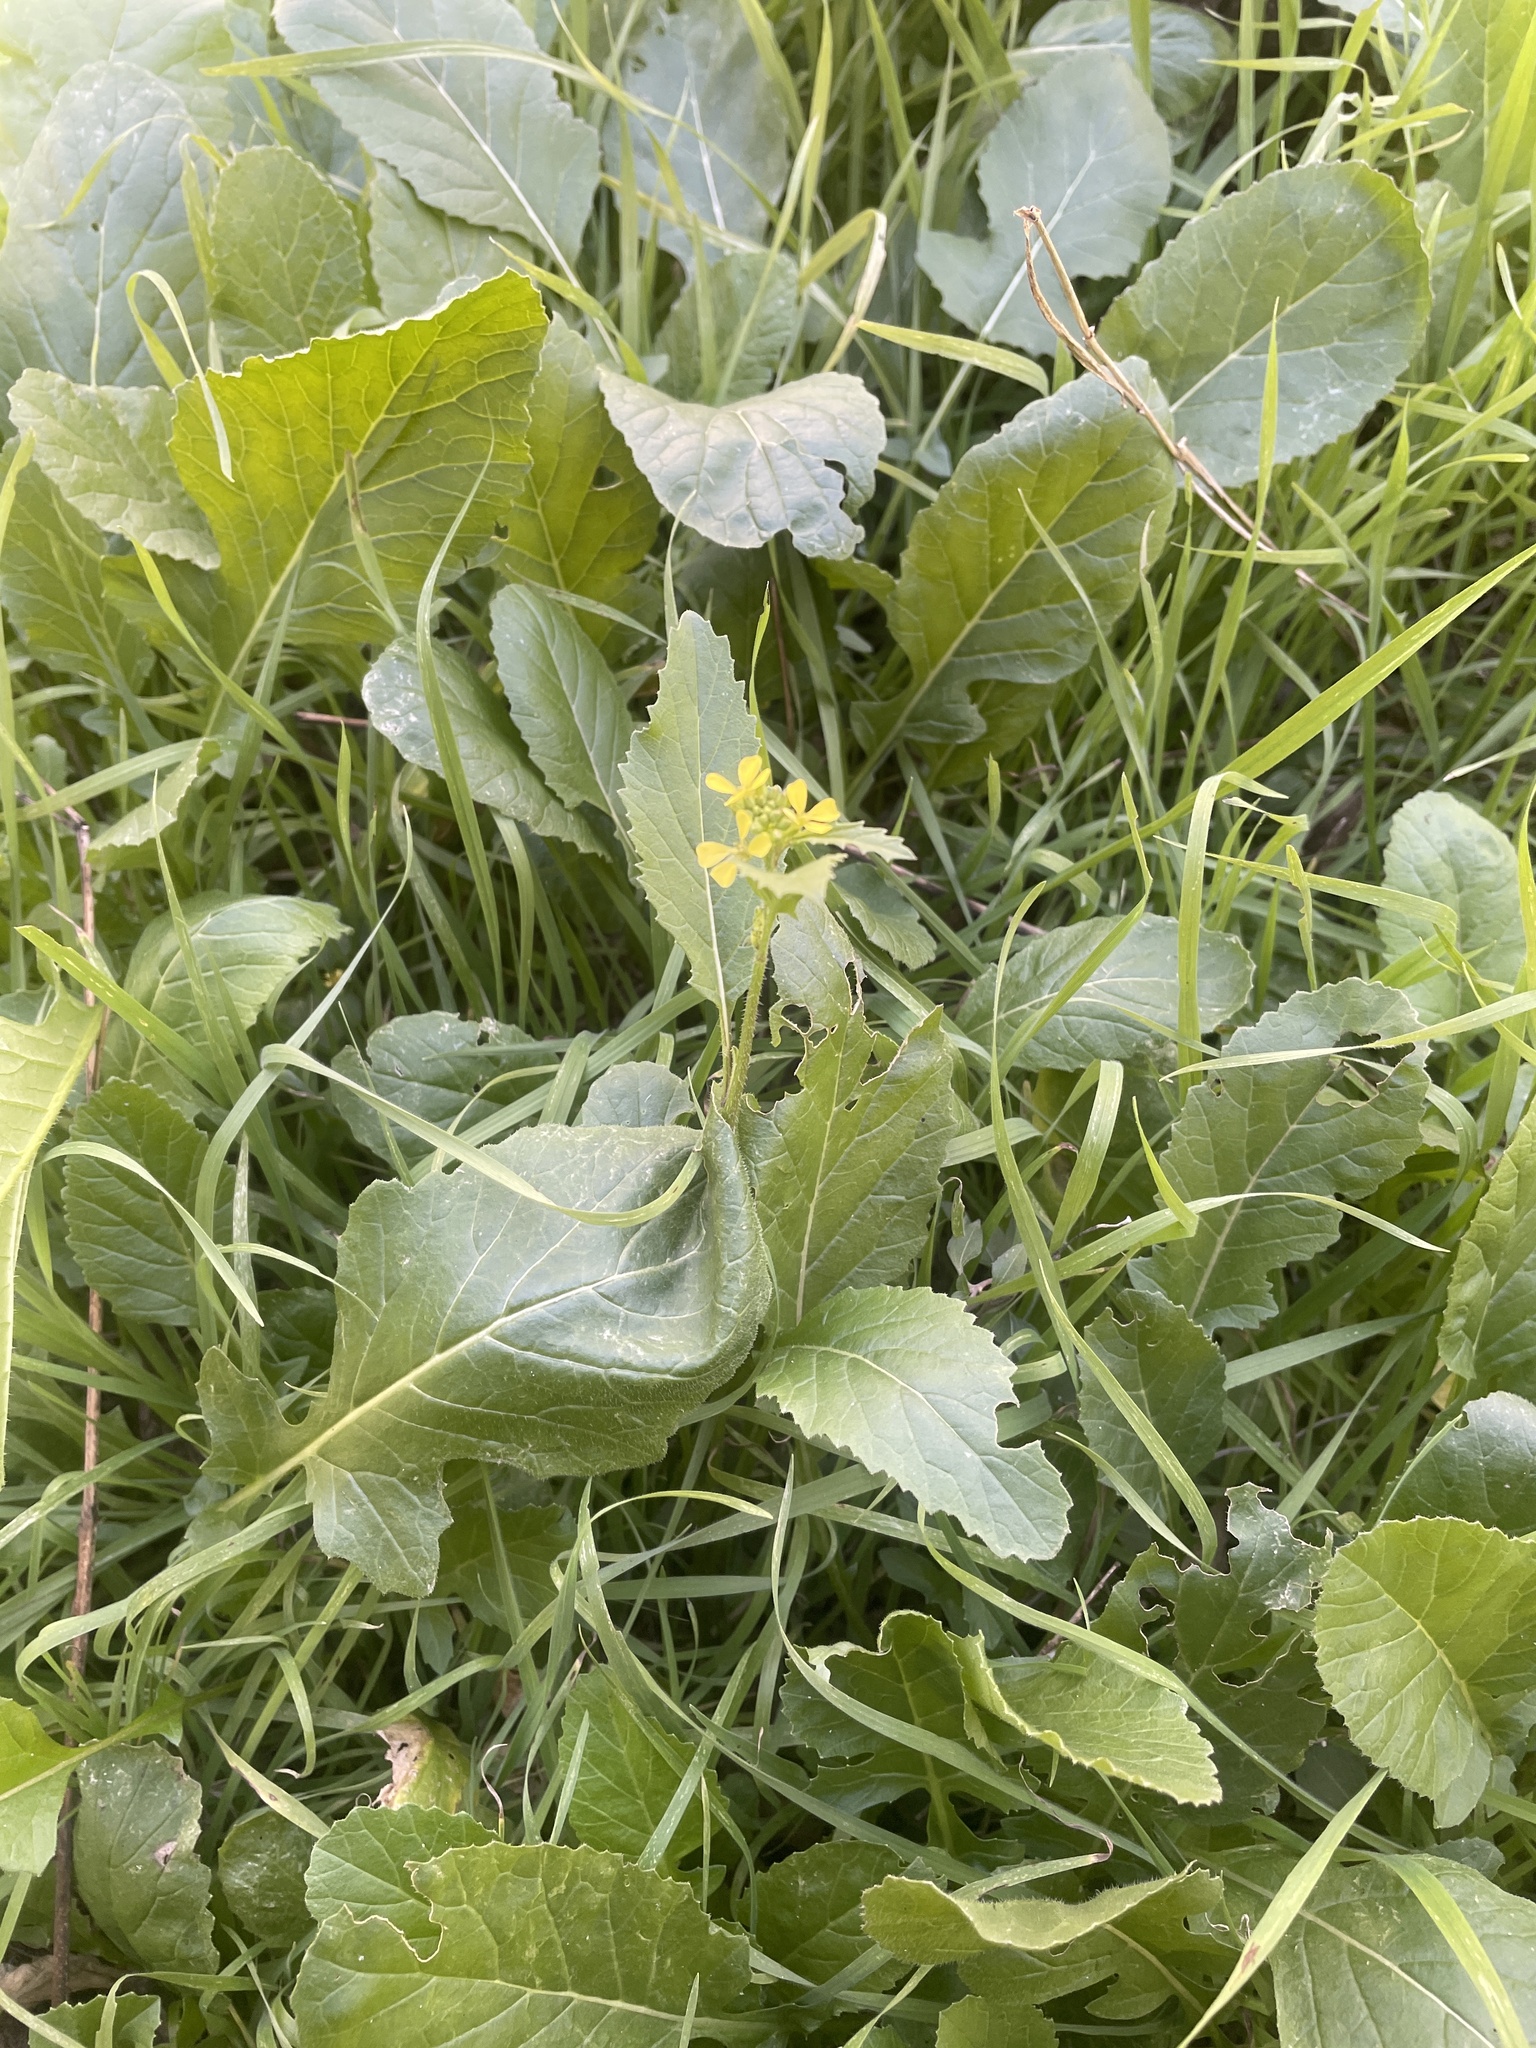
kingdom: Plantae
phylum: Tracheophyta
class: Magnoliopsida
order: Brassicales
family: Brassicaceae
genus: Rapistrum
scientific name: Rapistrum rugosum
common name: Annual bastardcabbage
